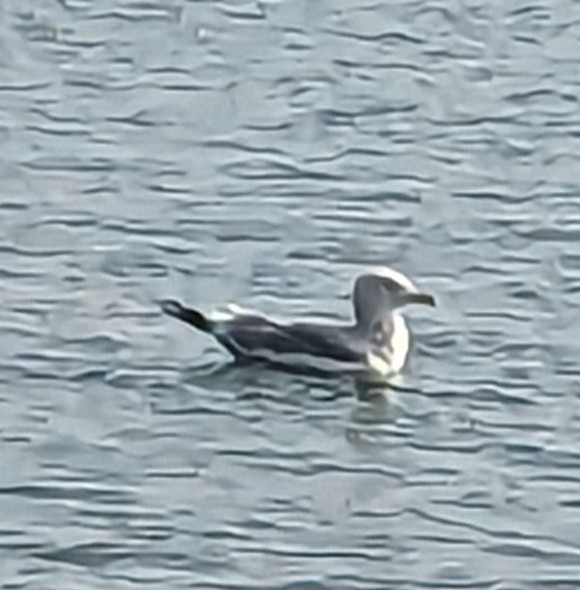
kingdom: Animalia
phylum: Chordata
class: Aves
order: Charadriiformes
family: Laridae
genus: Larus
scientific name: Larus argentatus
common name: Herring gull
